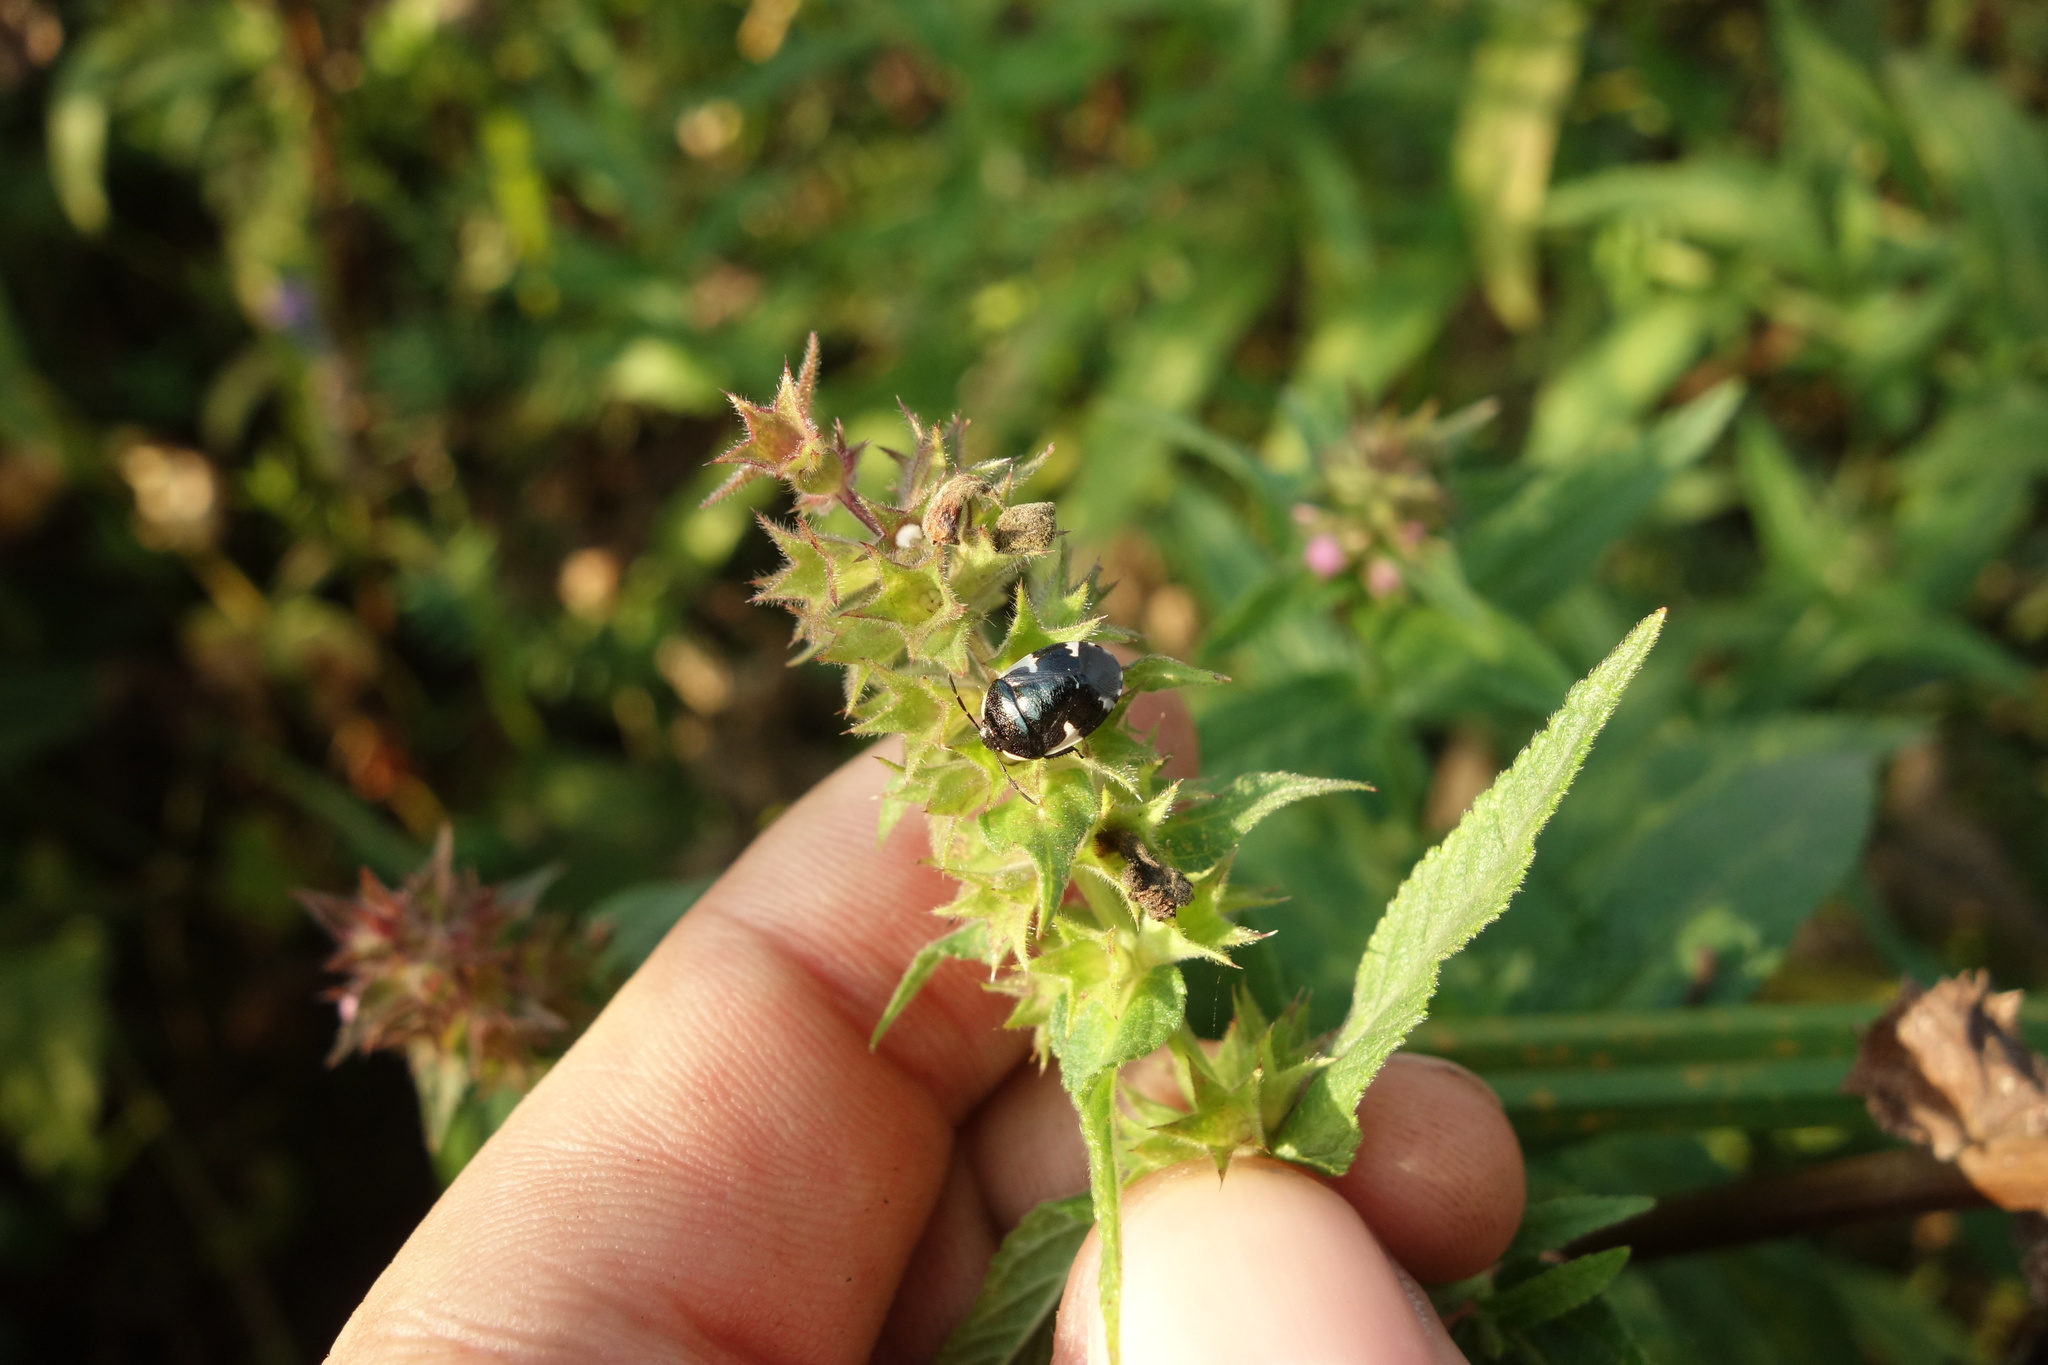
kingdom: Animalia
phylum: Arthropoda
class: Insecta
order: Hemiptera
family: Cydnidae
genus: Tritomegas
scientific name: Tritomegas sexmaculatus
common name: Rambur's pied shieldbug
